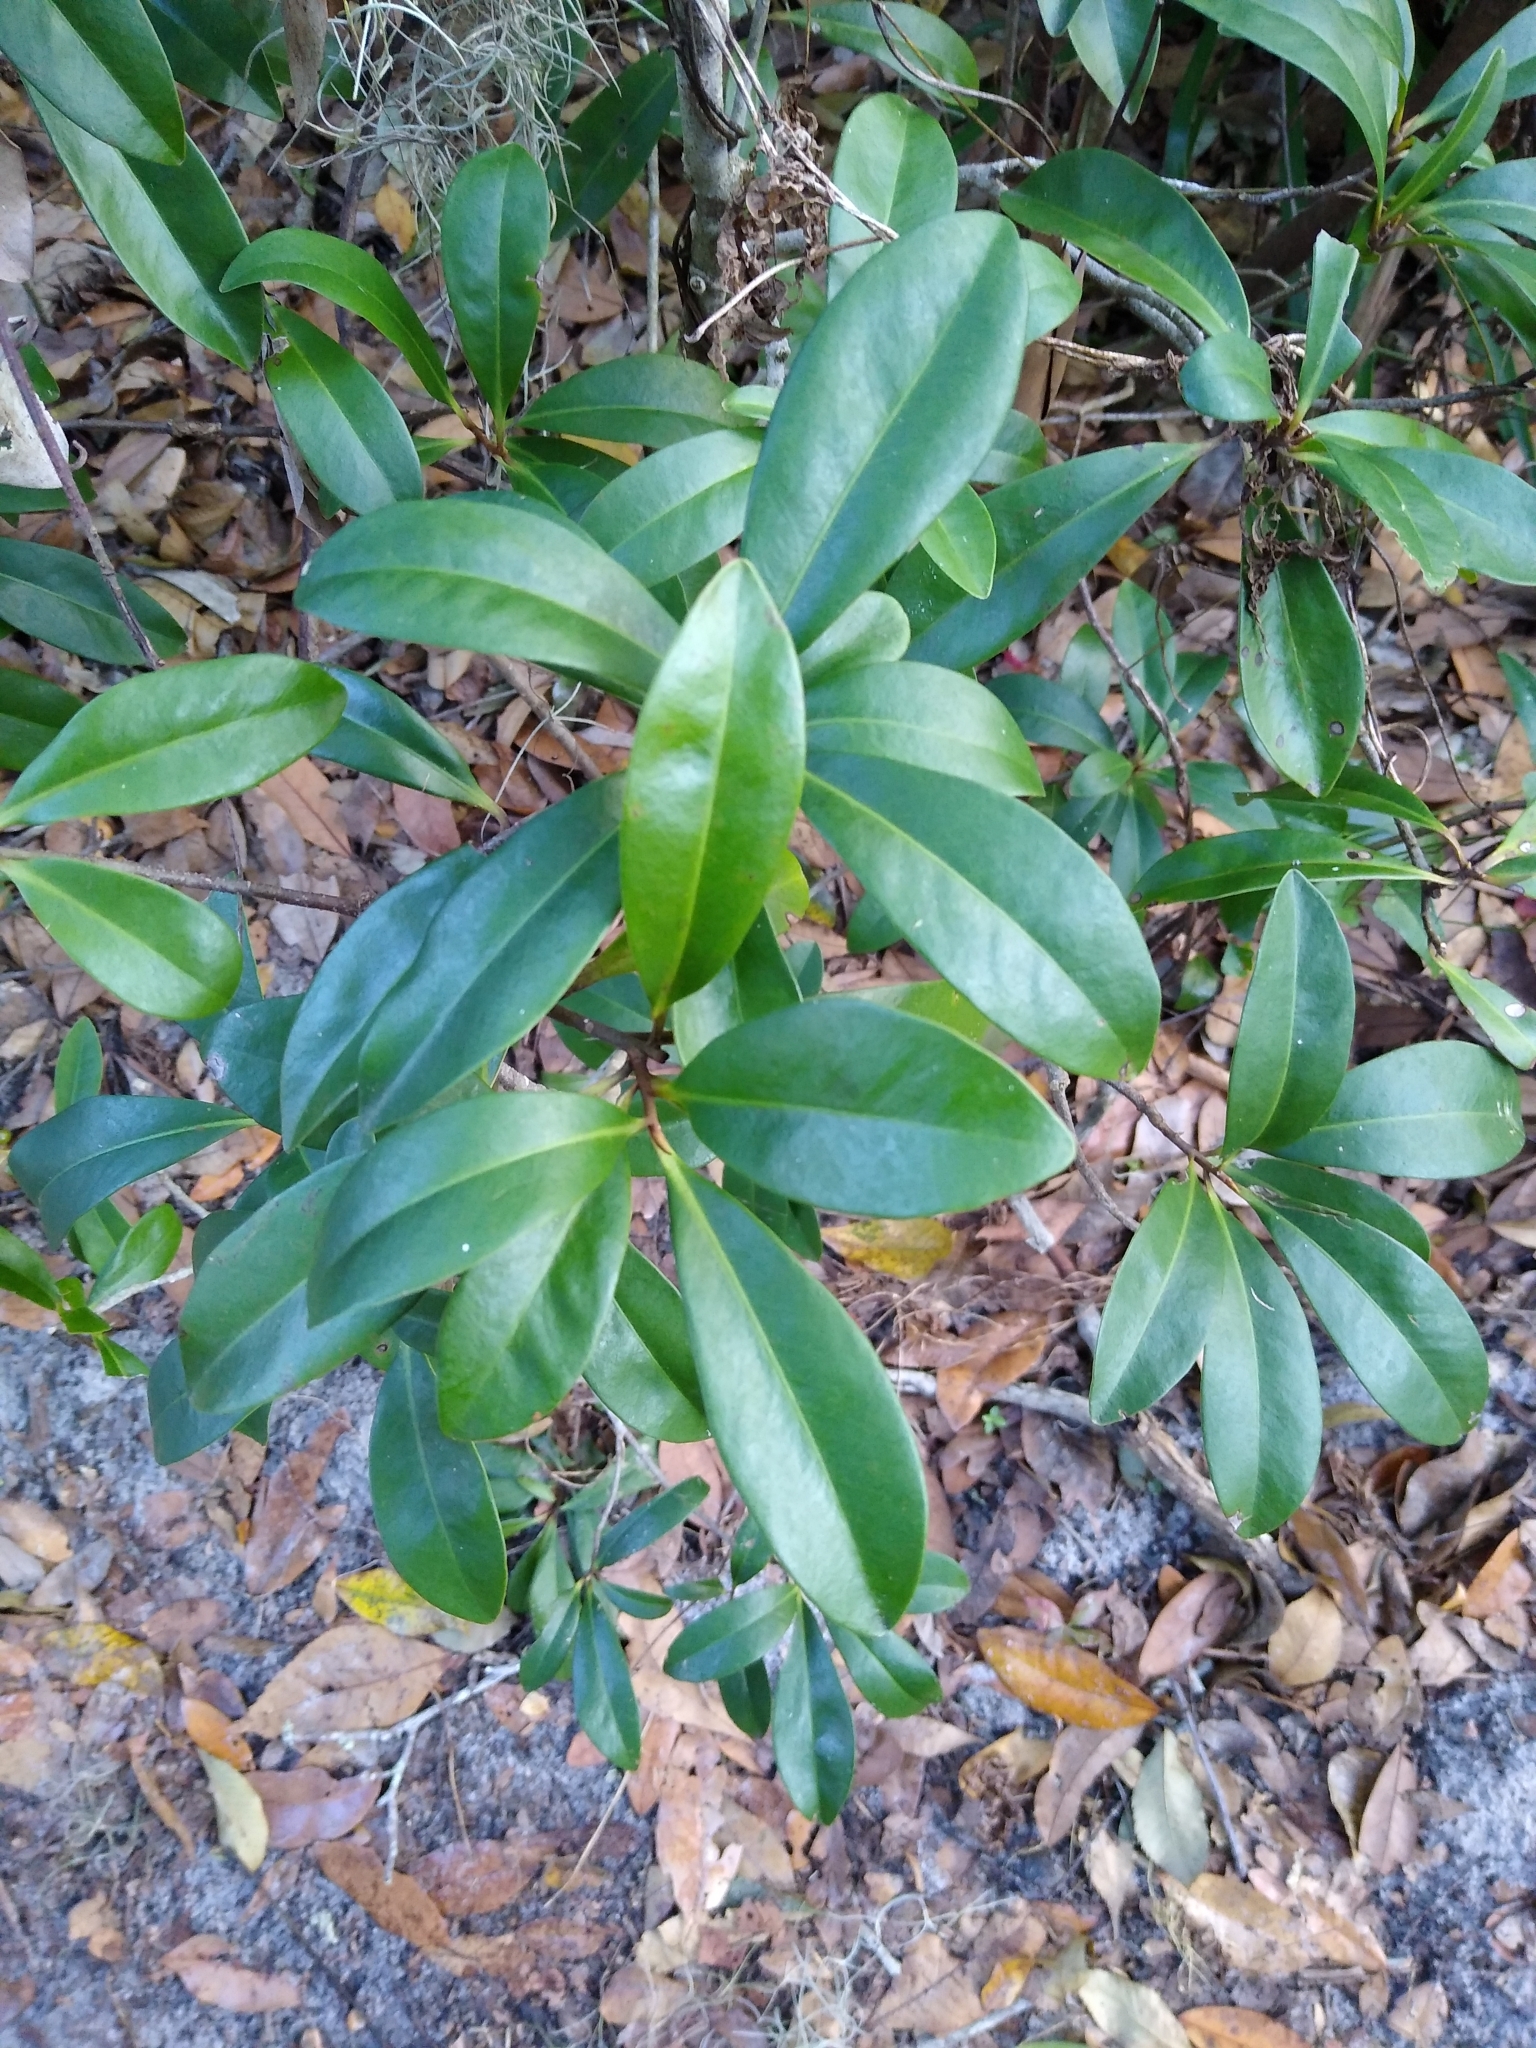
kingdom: Plantae
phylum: Tracheophyta
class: Magnoliopsida
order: Ericales
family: Primulaceae
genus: Ardisia
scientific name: Ardisia escallonioides
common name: Island marlberry
